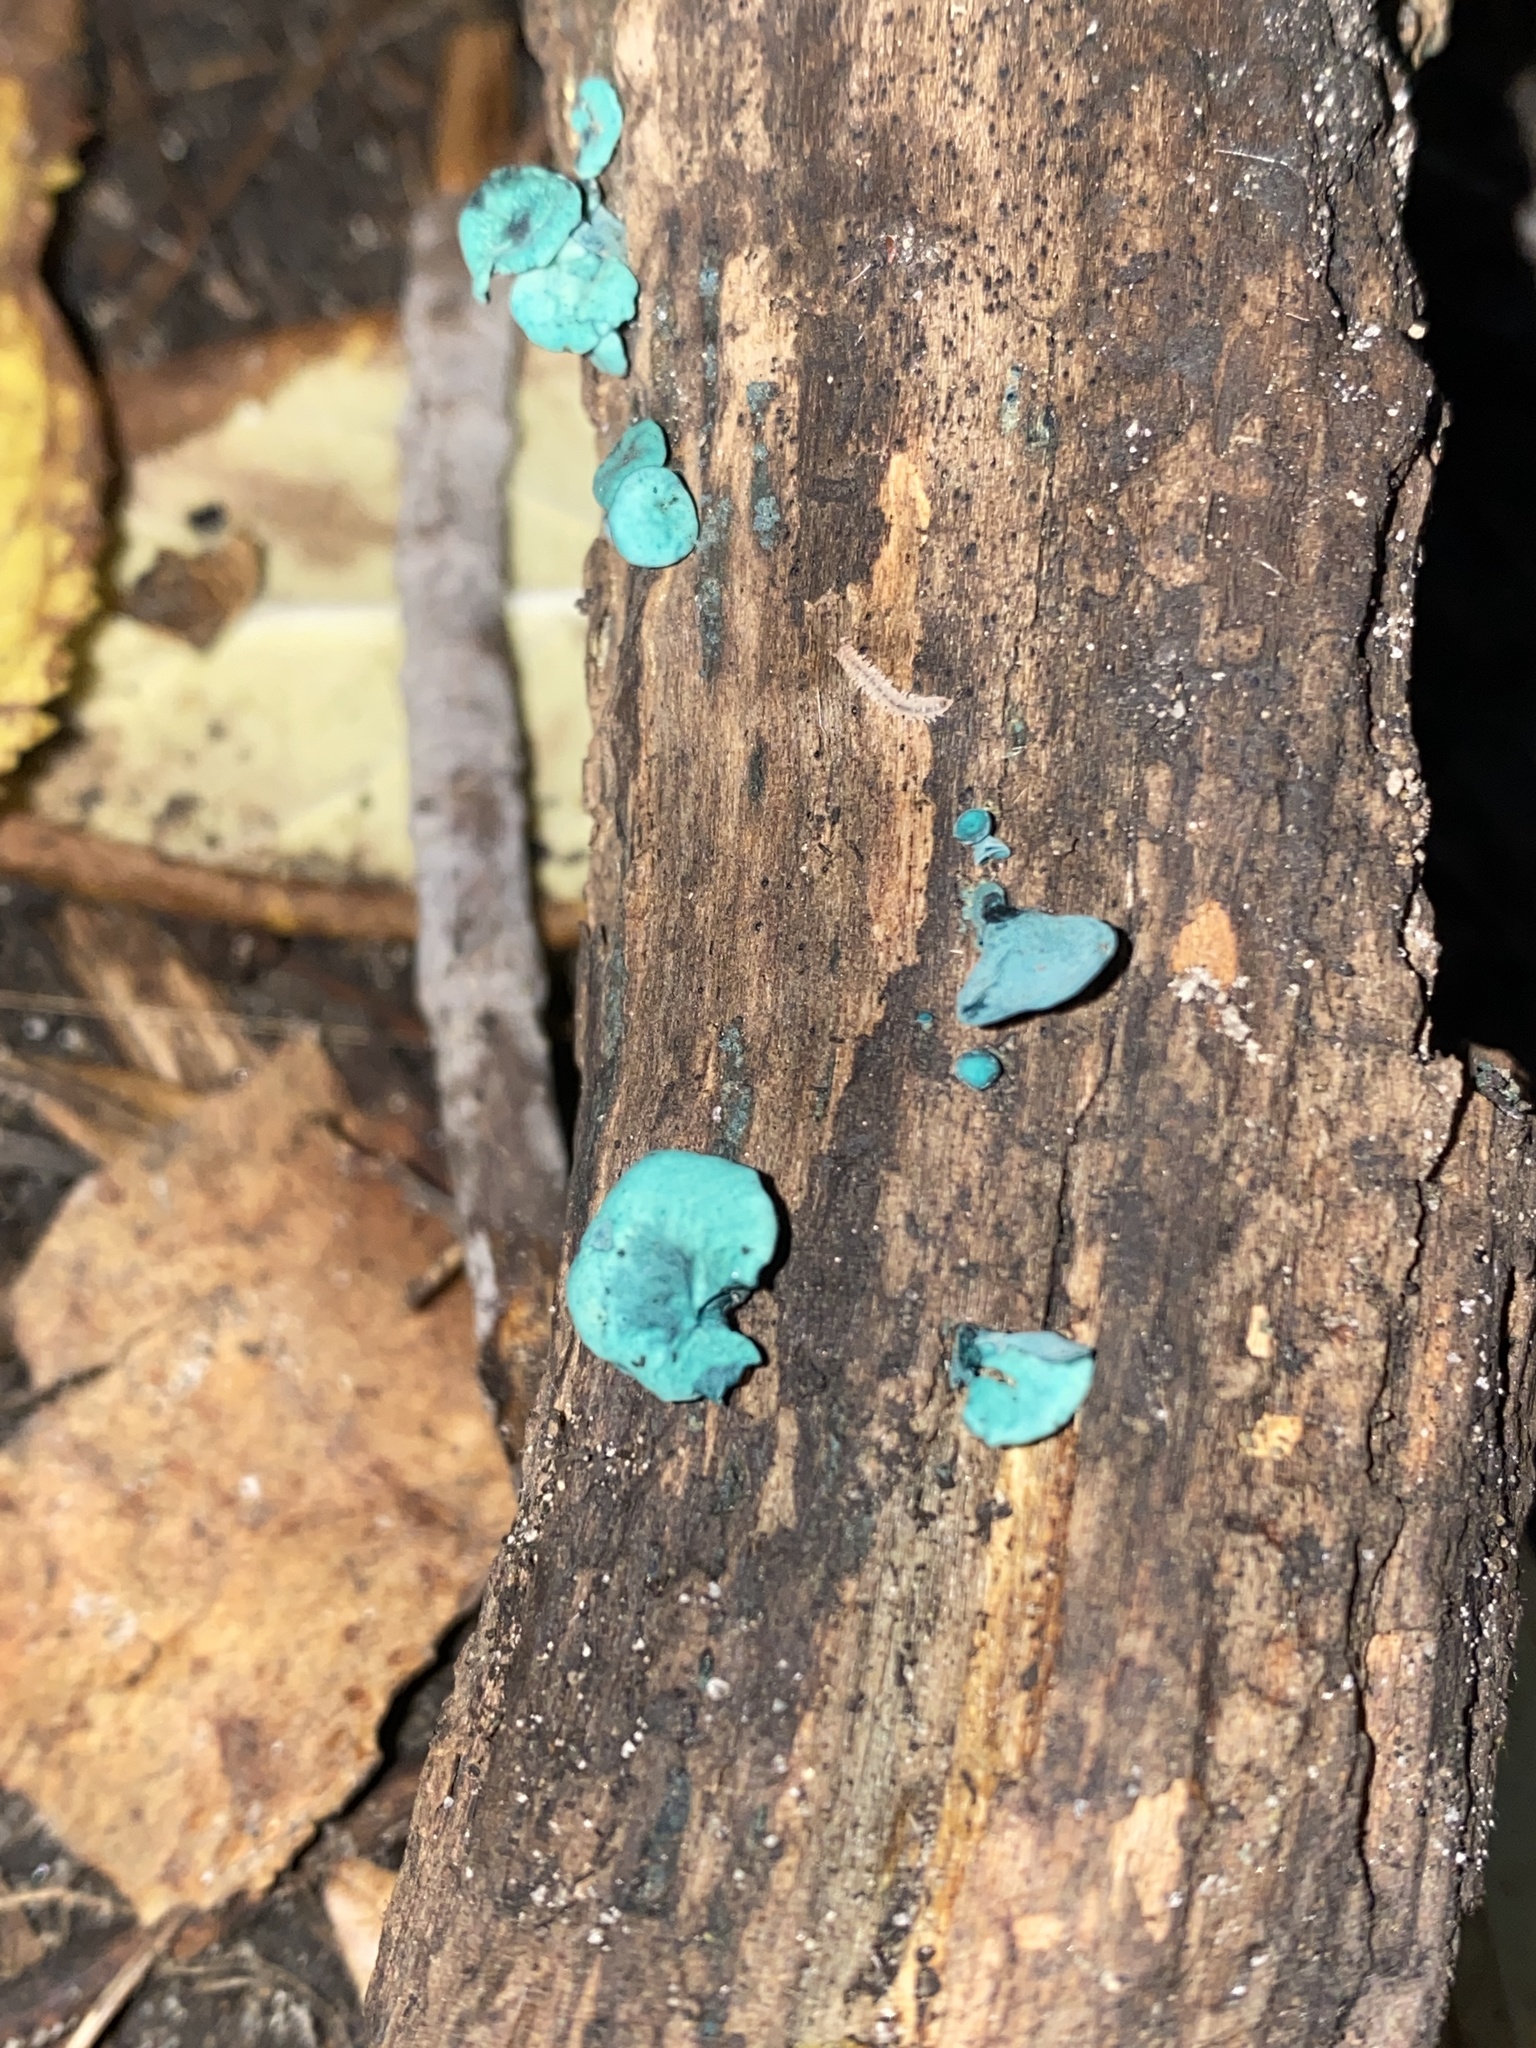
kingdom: Fungi
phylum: Ascomycota
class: Leotiomycetes
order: Helotiales
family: Chlorociboriaceae
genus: Chlorociboria
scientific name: Chlorociboria aeruginascens
